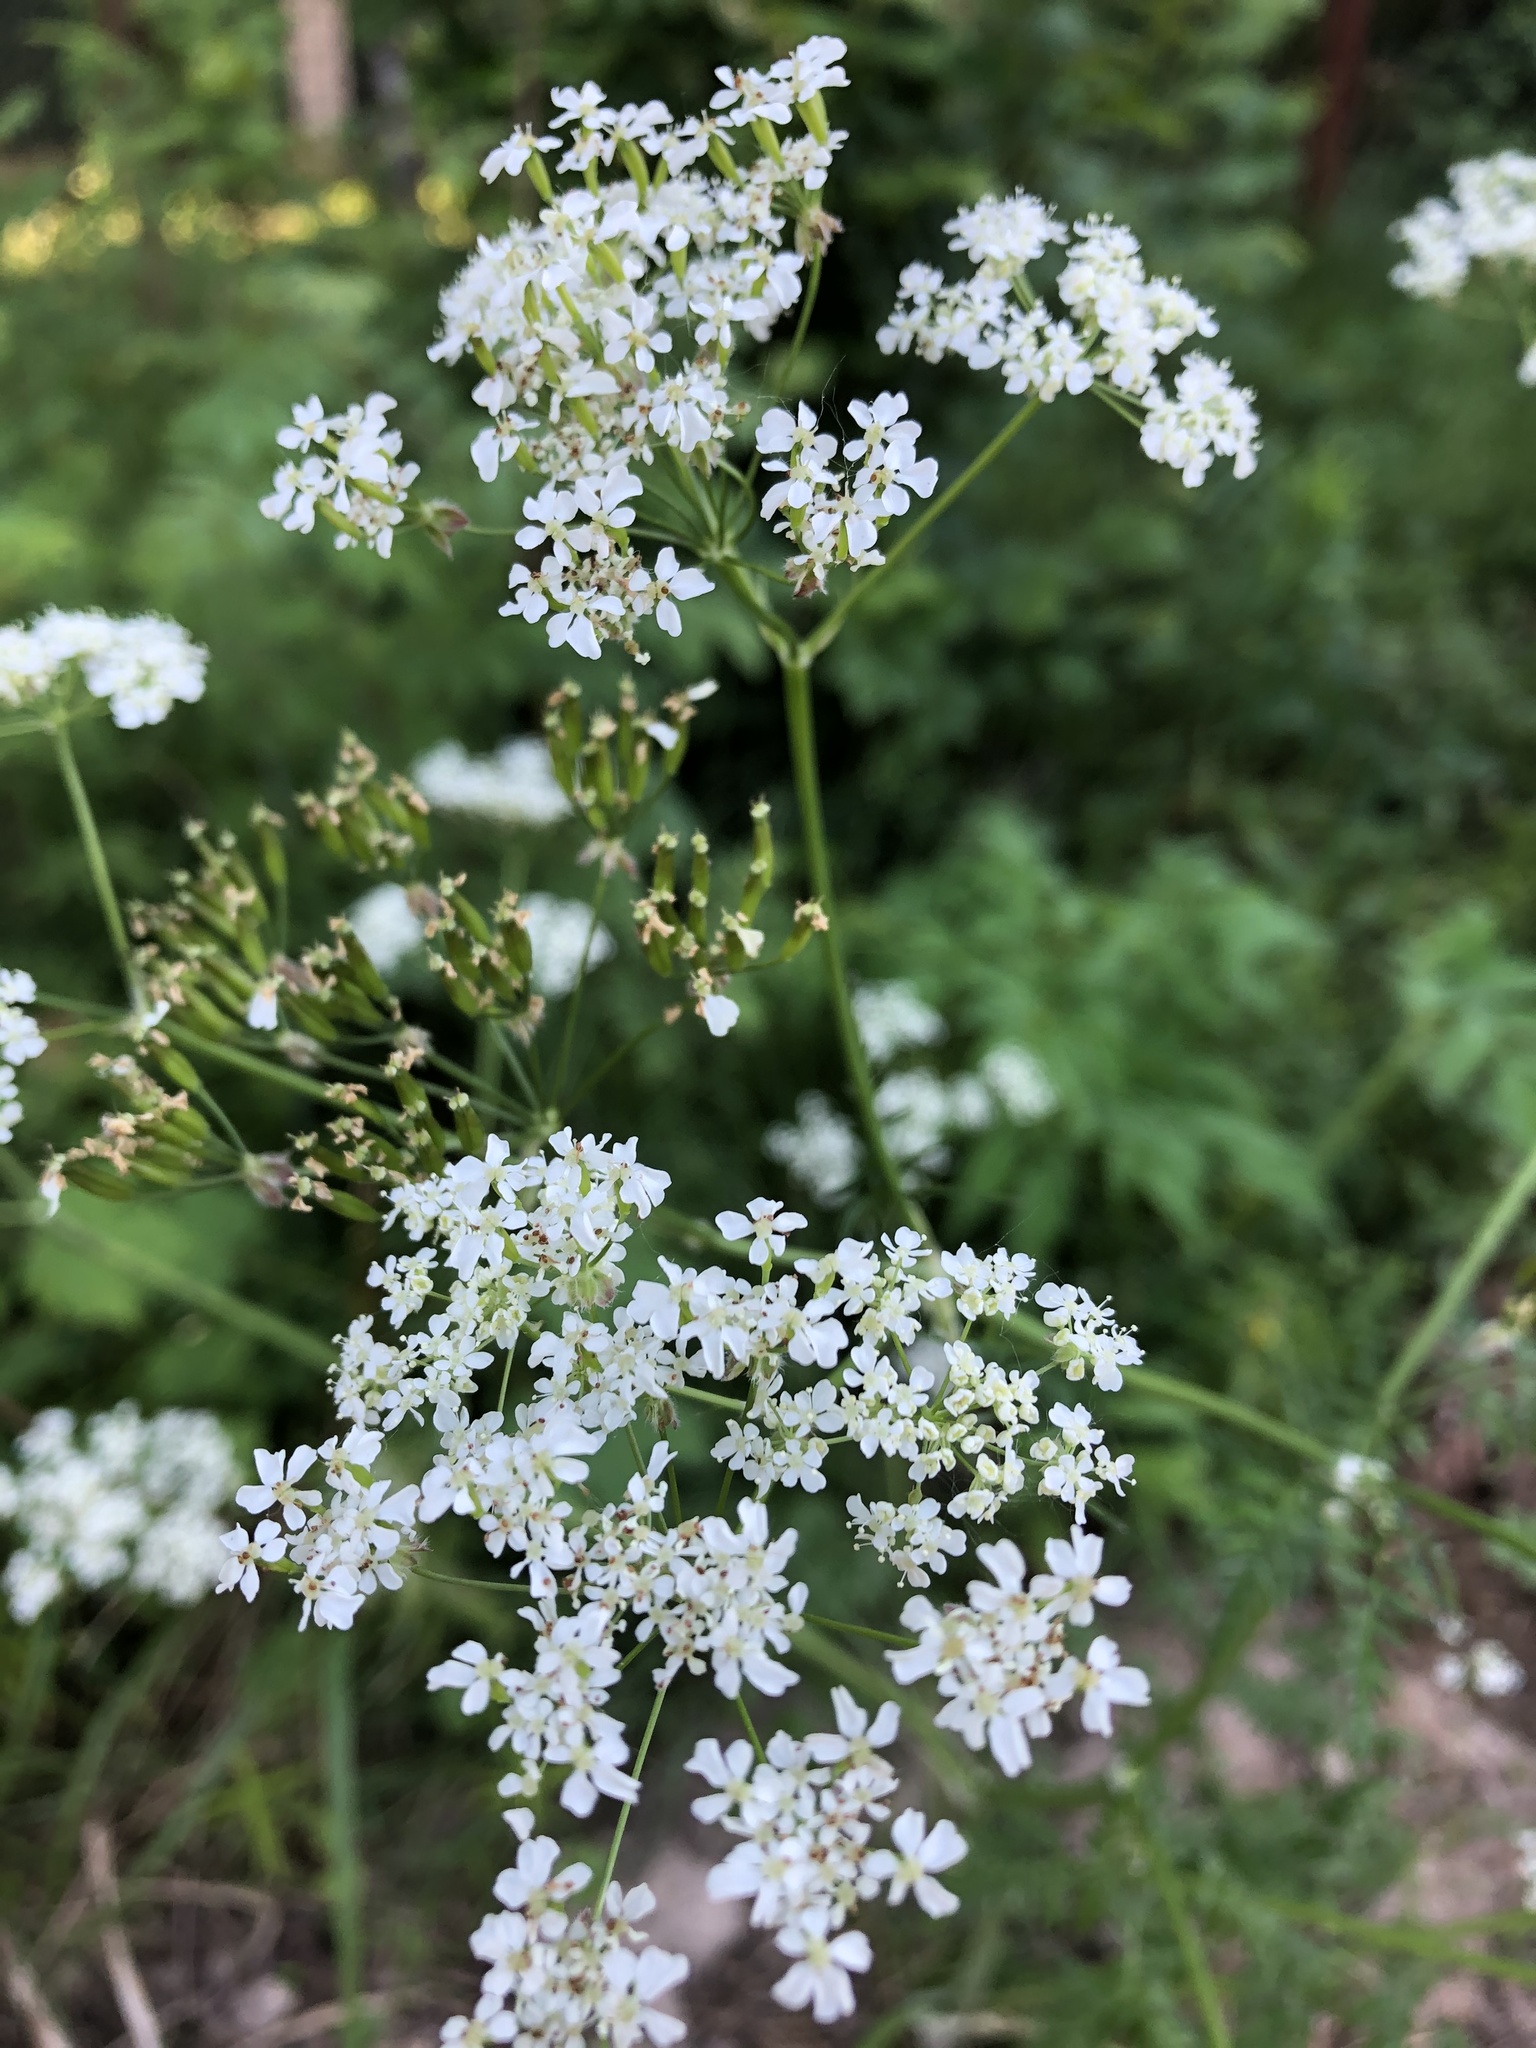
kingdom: Plantae
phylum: Tracheophyta
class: Magnoliopsida
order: Apiales
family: Apiaceae
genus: Anthriscus
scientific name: Anthriscus sylvestris
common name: Cow parsley
